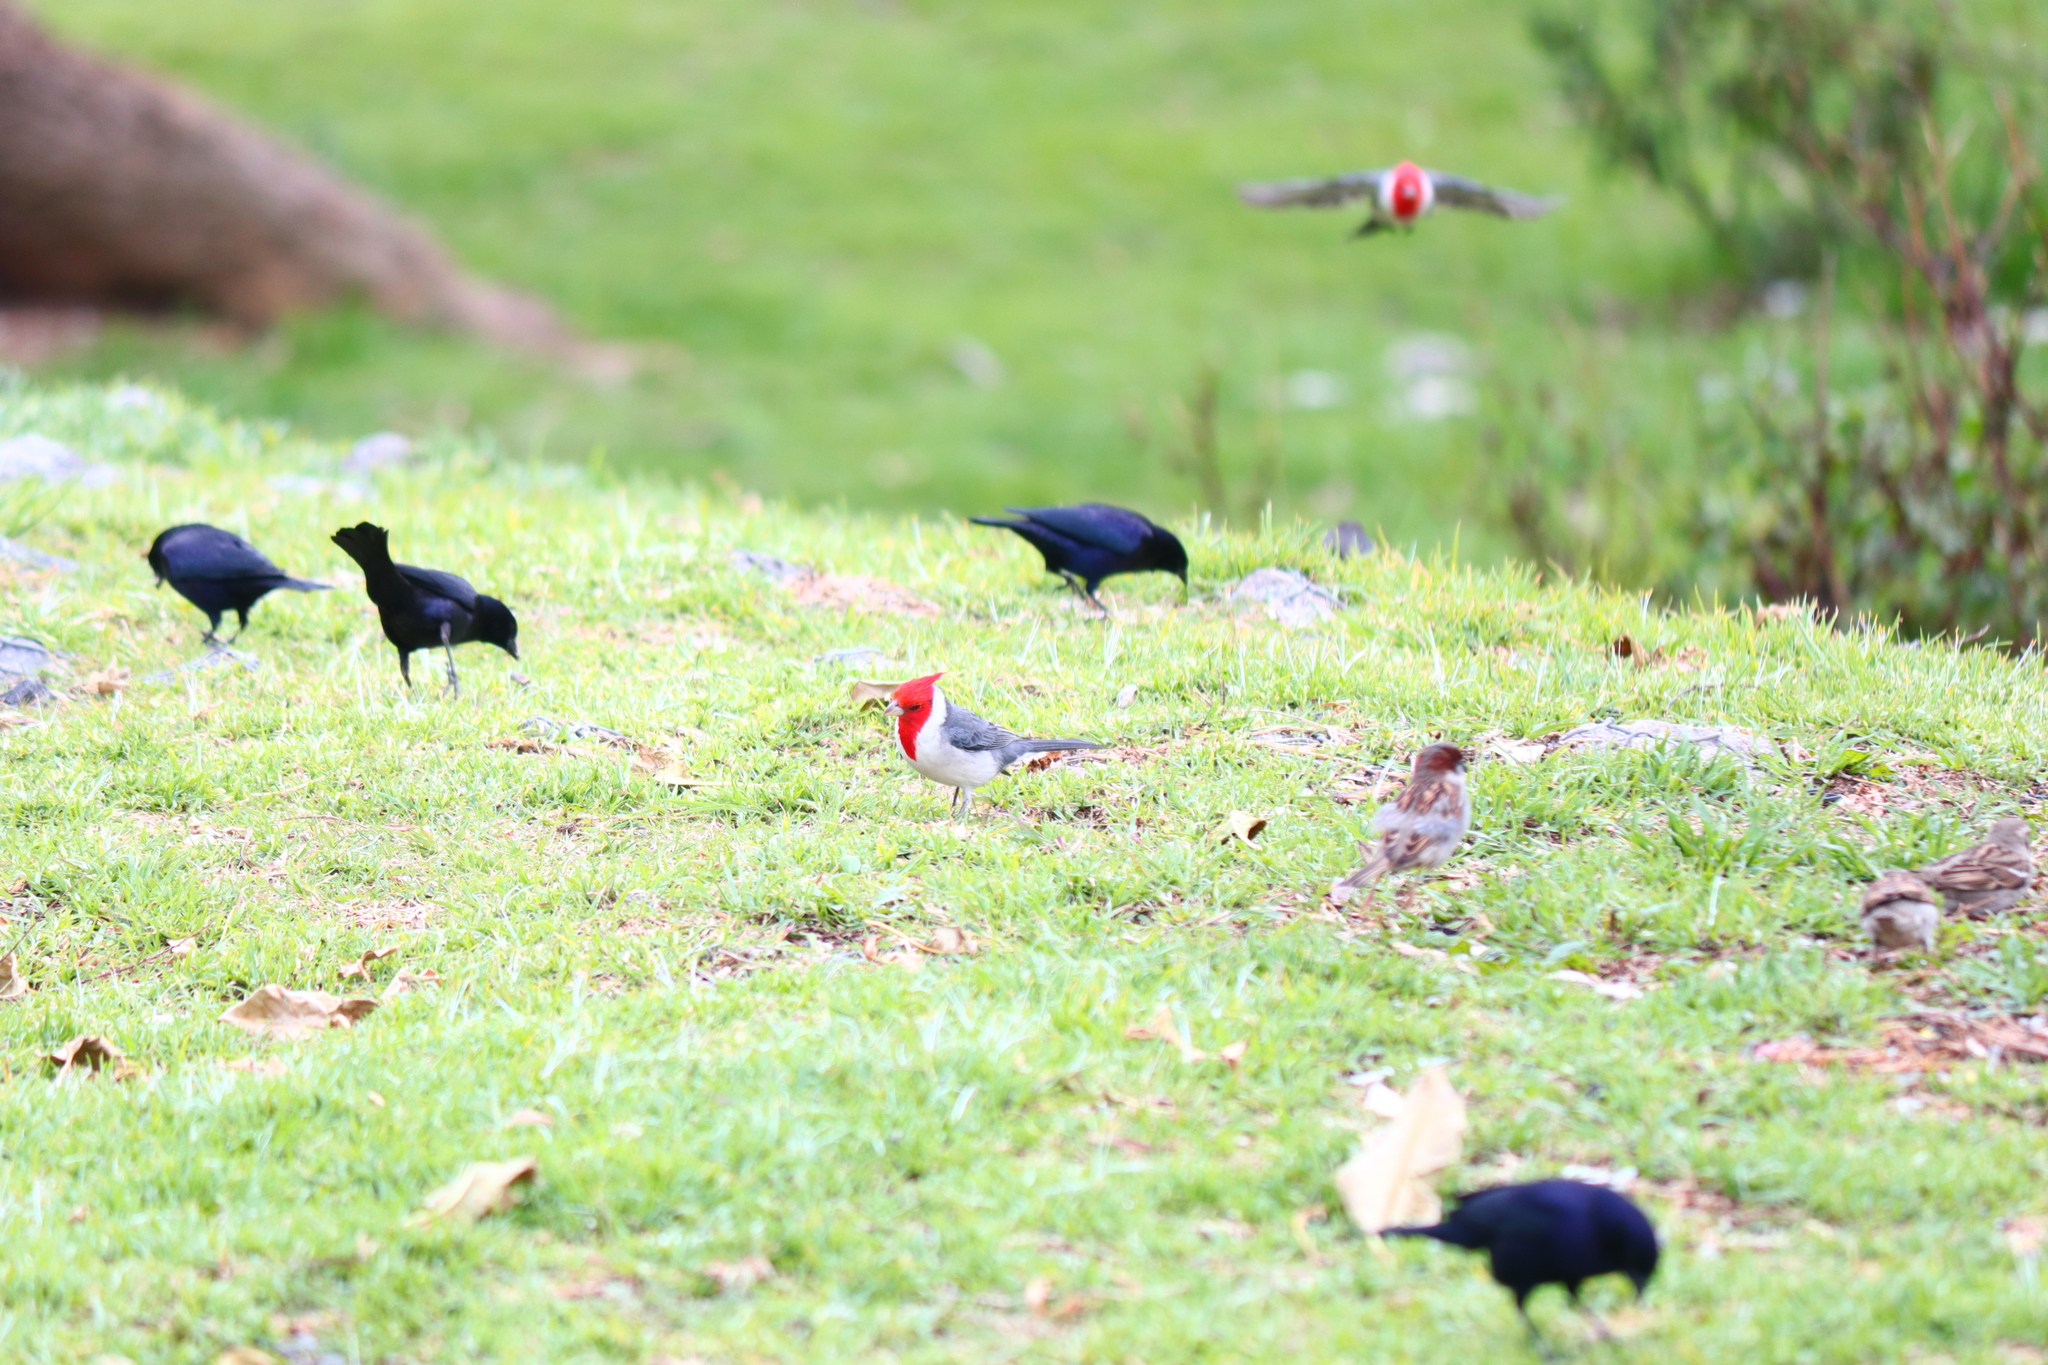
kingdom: Animalia
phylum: Chordata
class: Aves
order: Passeriformes
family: Thraupidae
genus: Paroaria
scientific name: Paroaria coronata
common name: Red-crested cardinal
